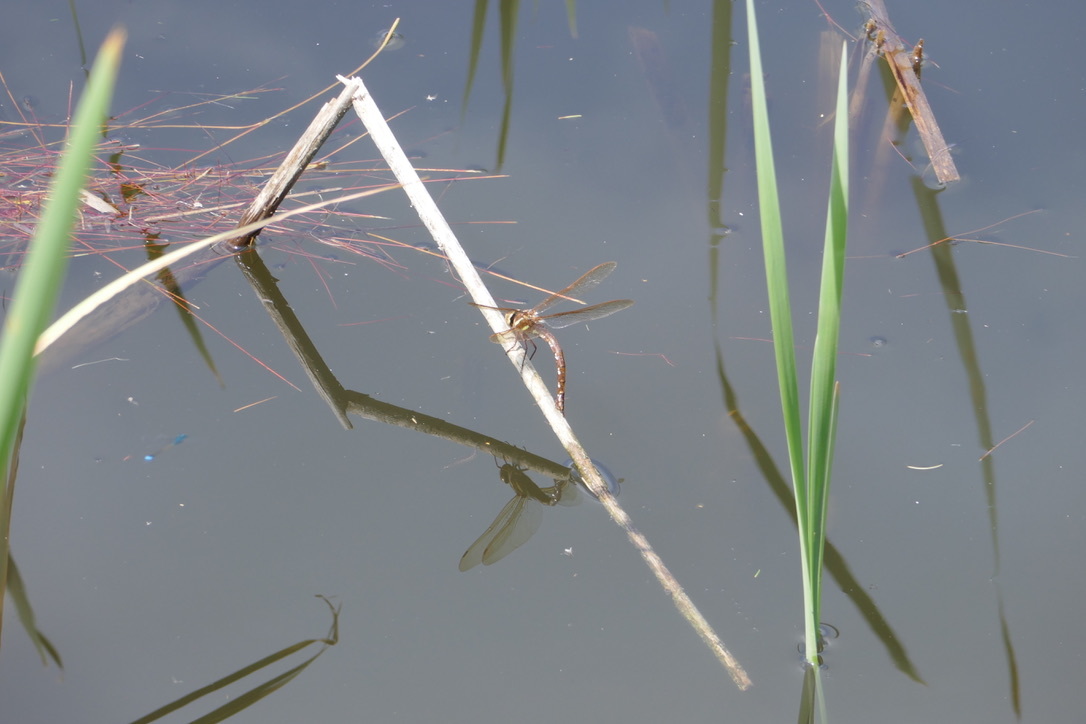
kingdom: Animalia
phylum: Arthropoda
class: Insecta
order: Odonata
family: Aeshnidae
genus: Aeshna
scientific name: Aeshna grandis
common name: Brown hawker
